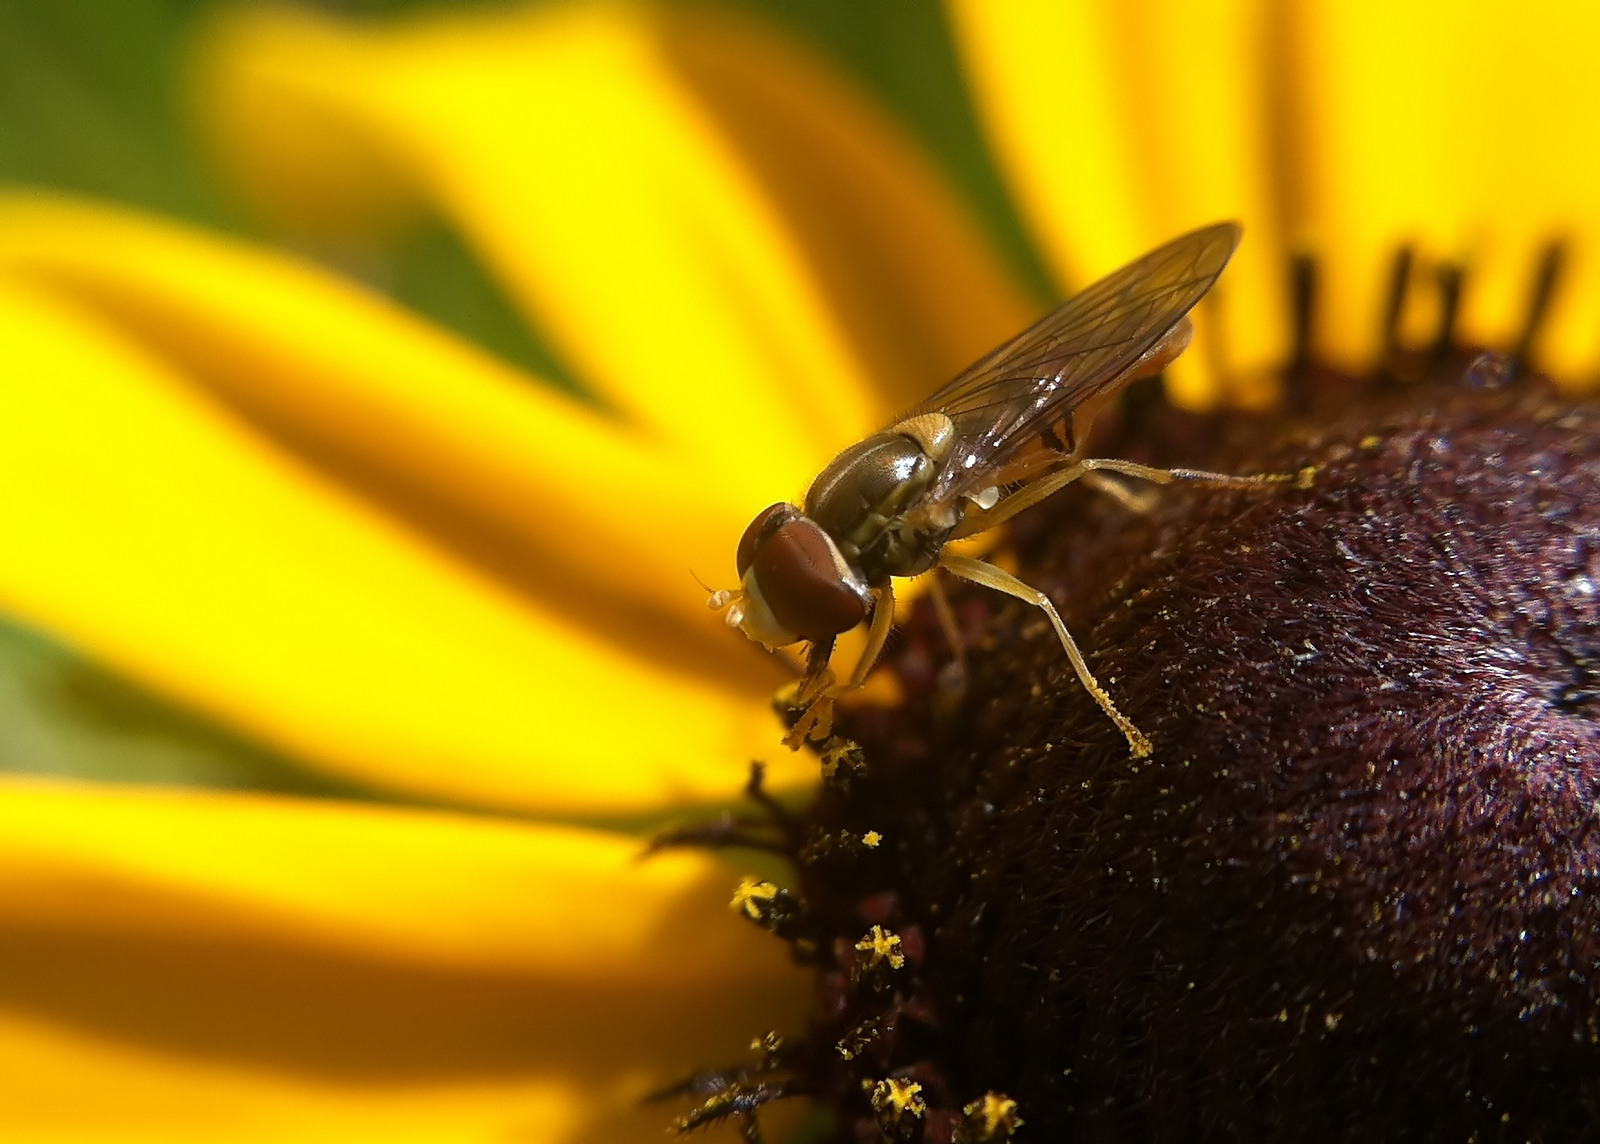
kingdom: Animalia
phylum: Arthropoda
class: Insecta
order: Diptera
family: Syrphidae
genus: Toxomerus
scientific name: Toxomerus marginatus
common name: Syrphid fly
